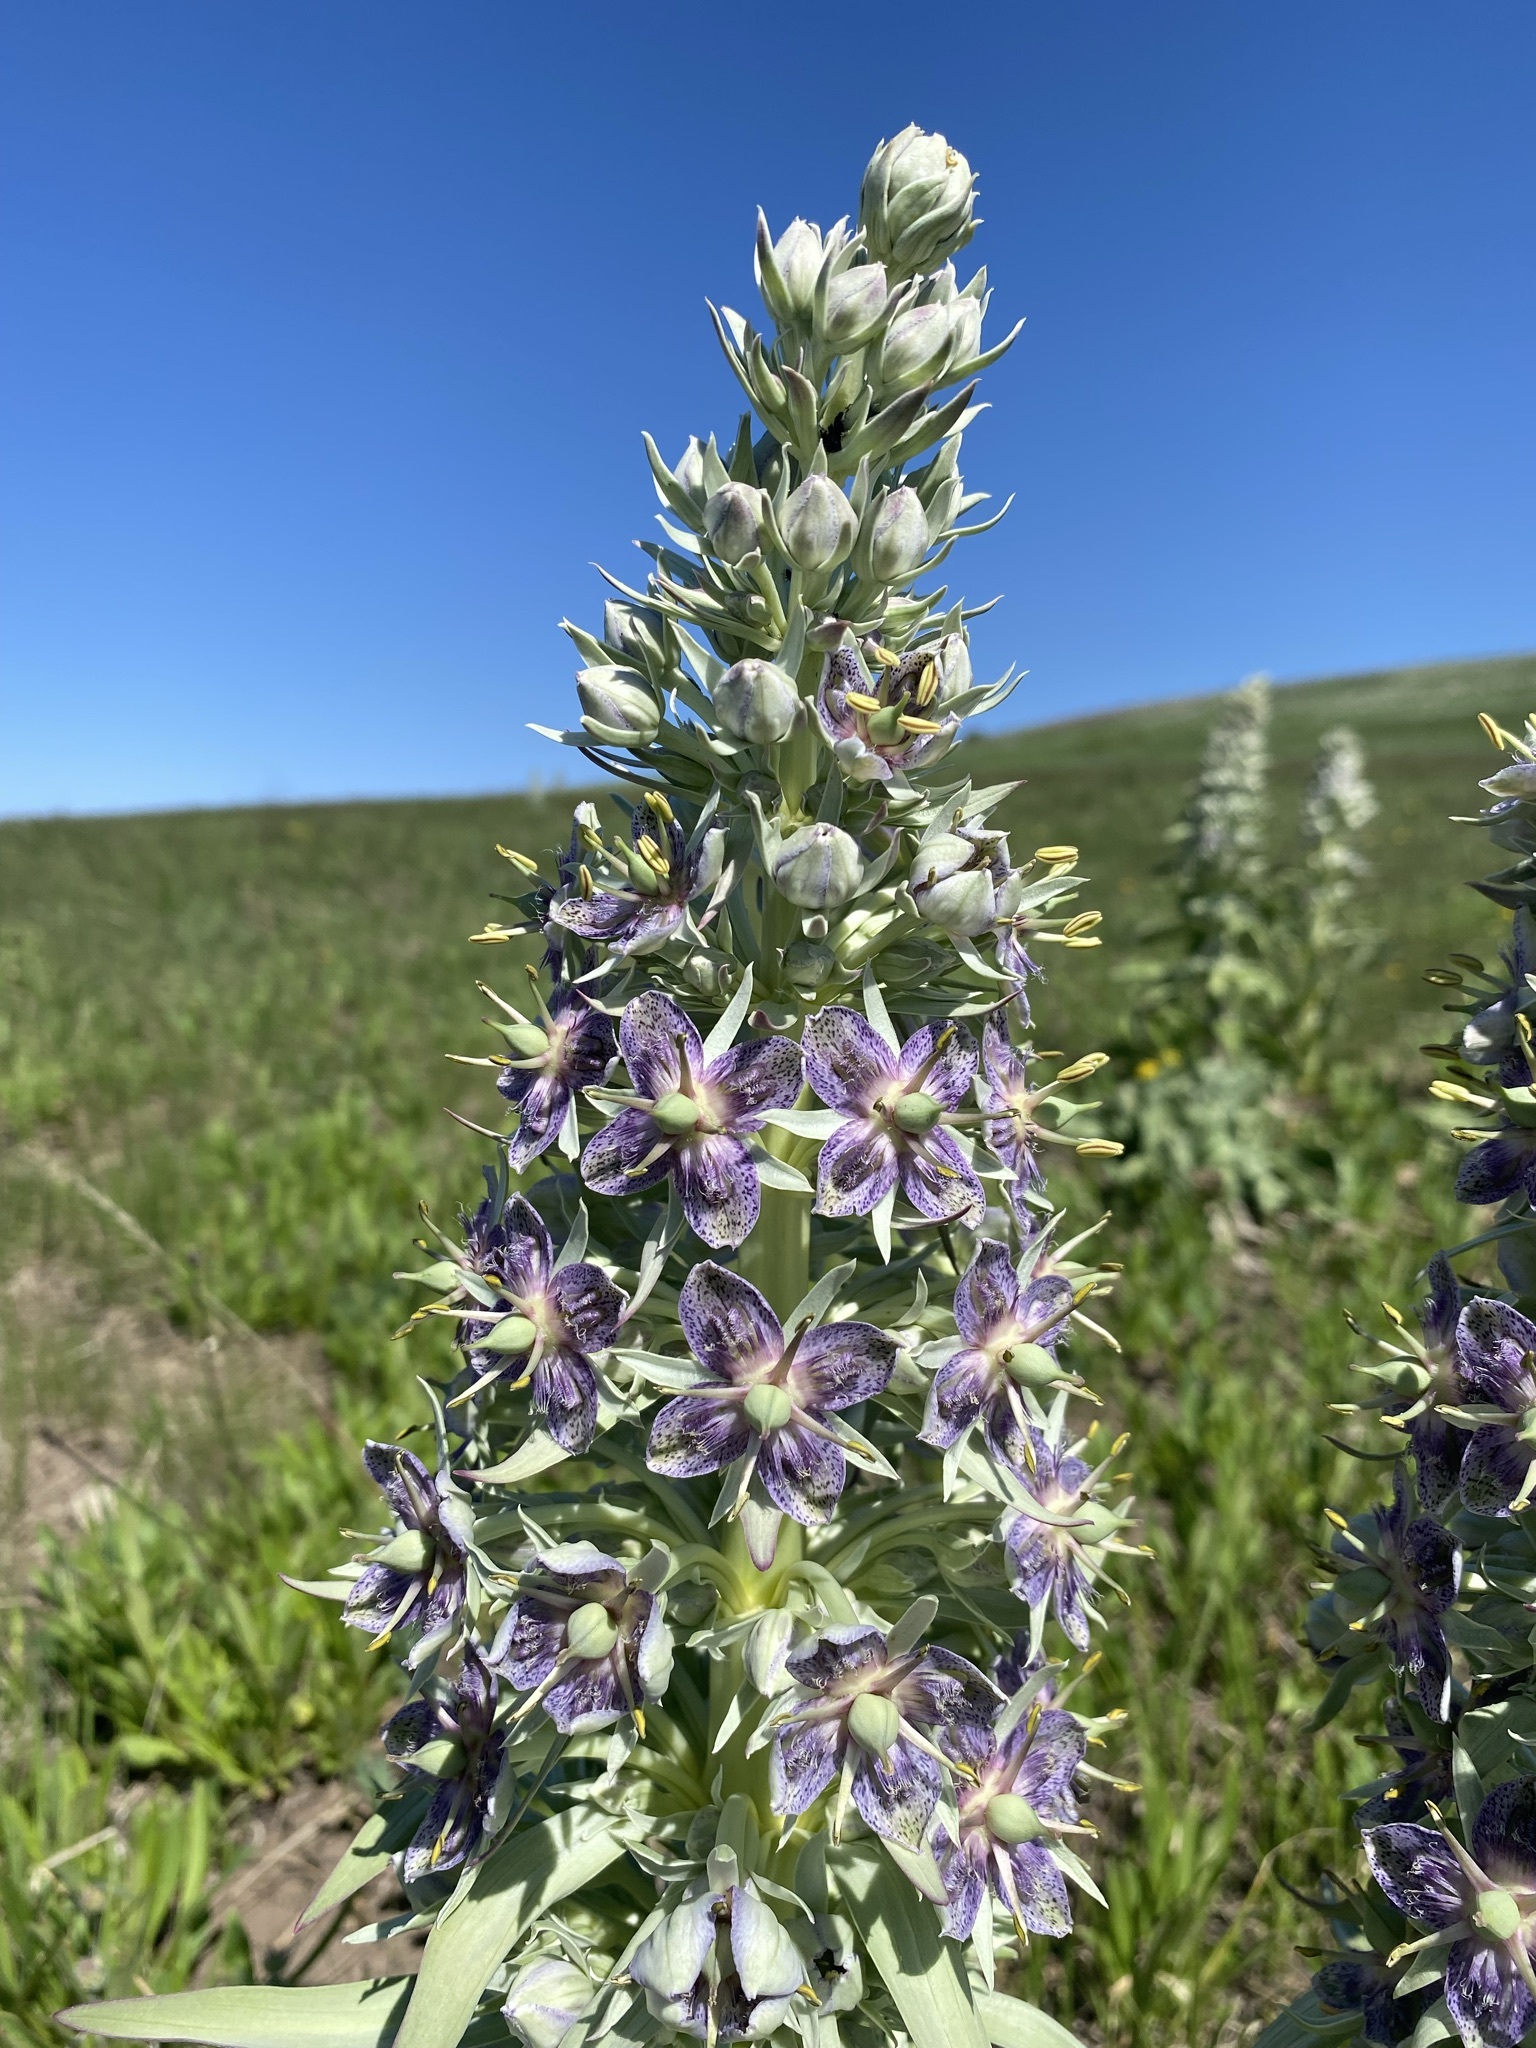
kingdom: Plantae
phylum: Tracheophyta
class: Magnoliopsida
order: Gentianales
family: Gentianaceae
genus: Frasera
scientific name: Frasera speciosa
